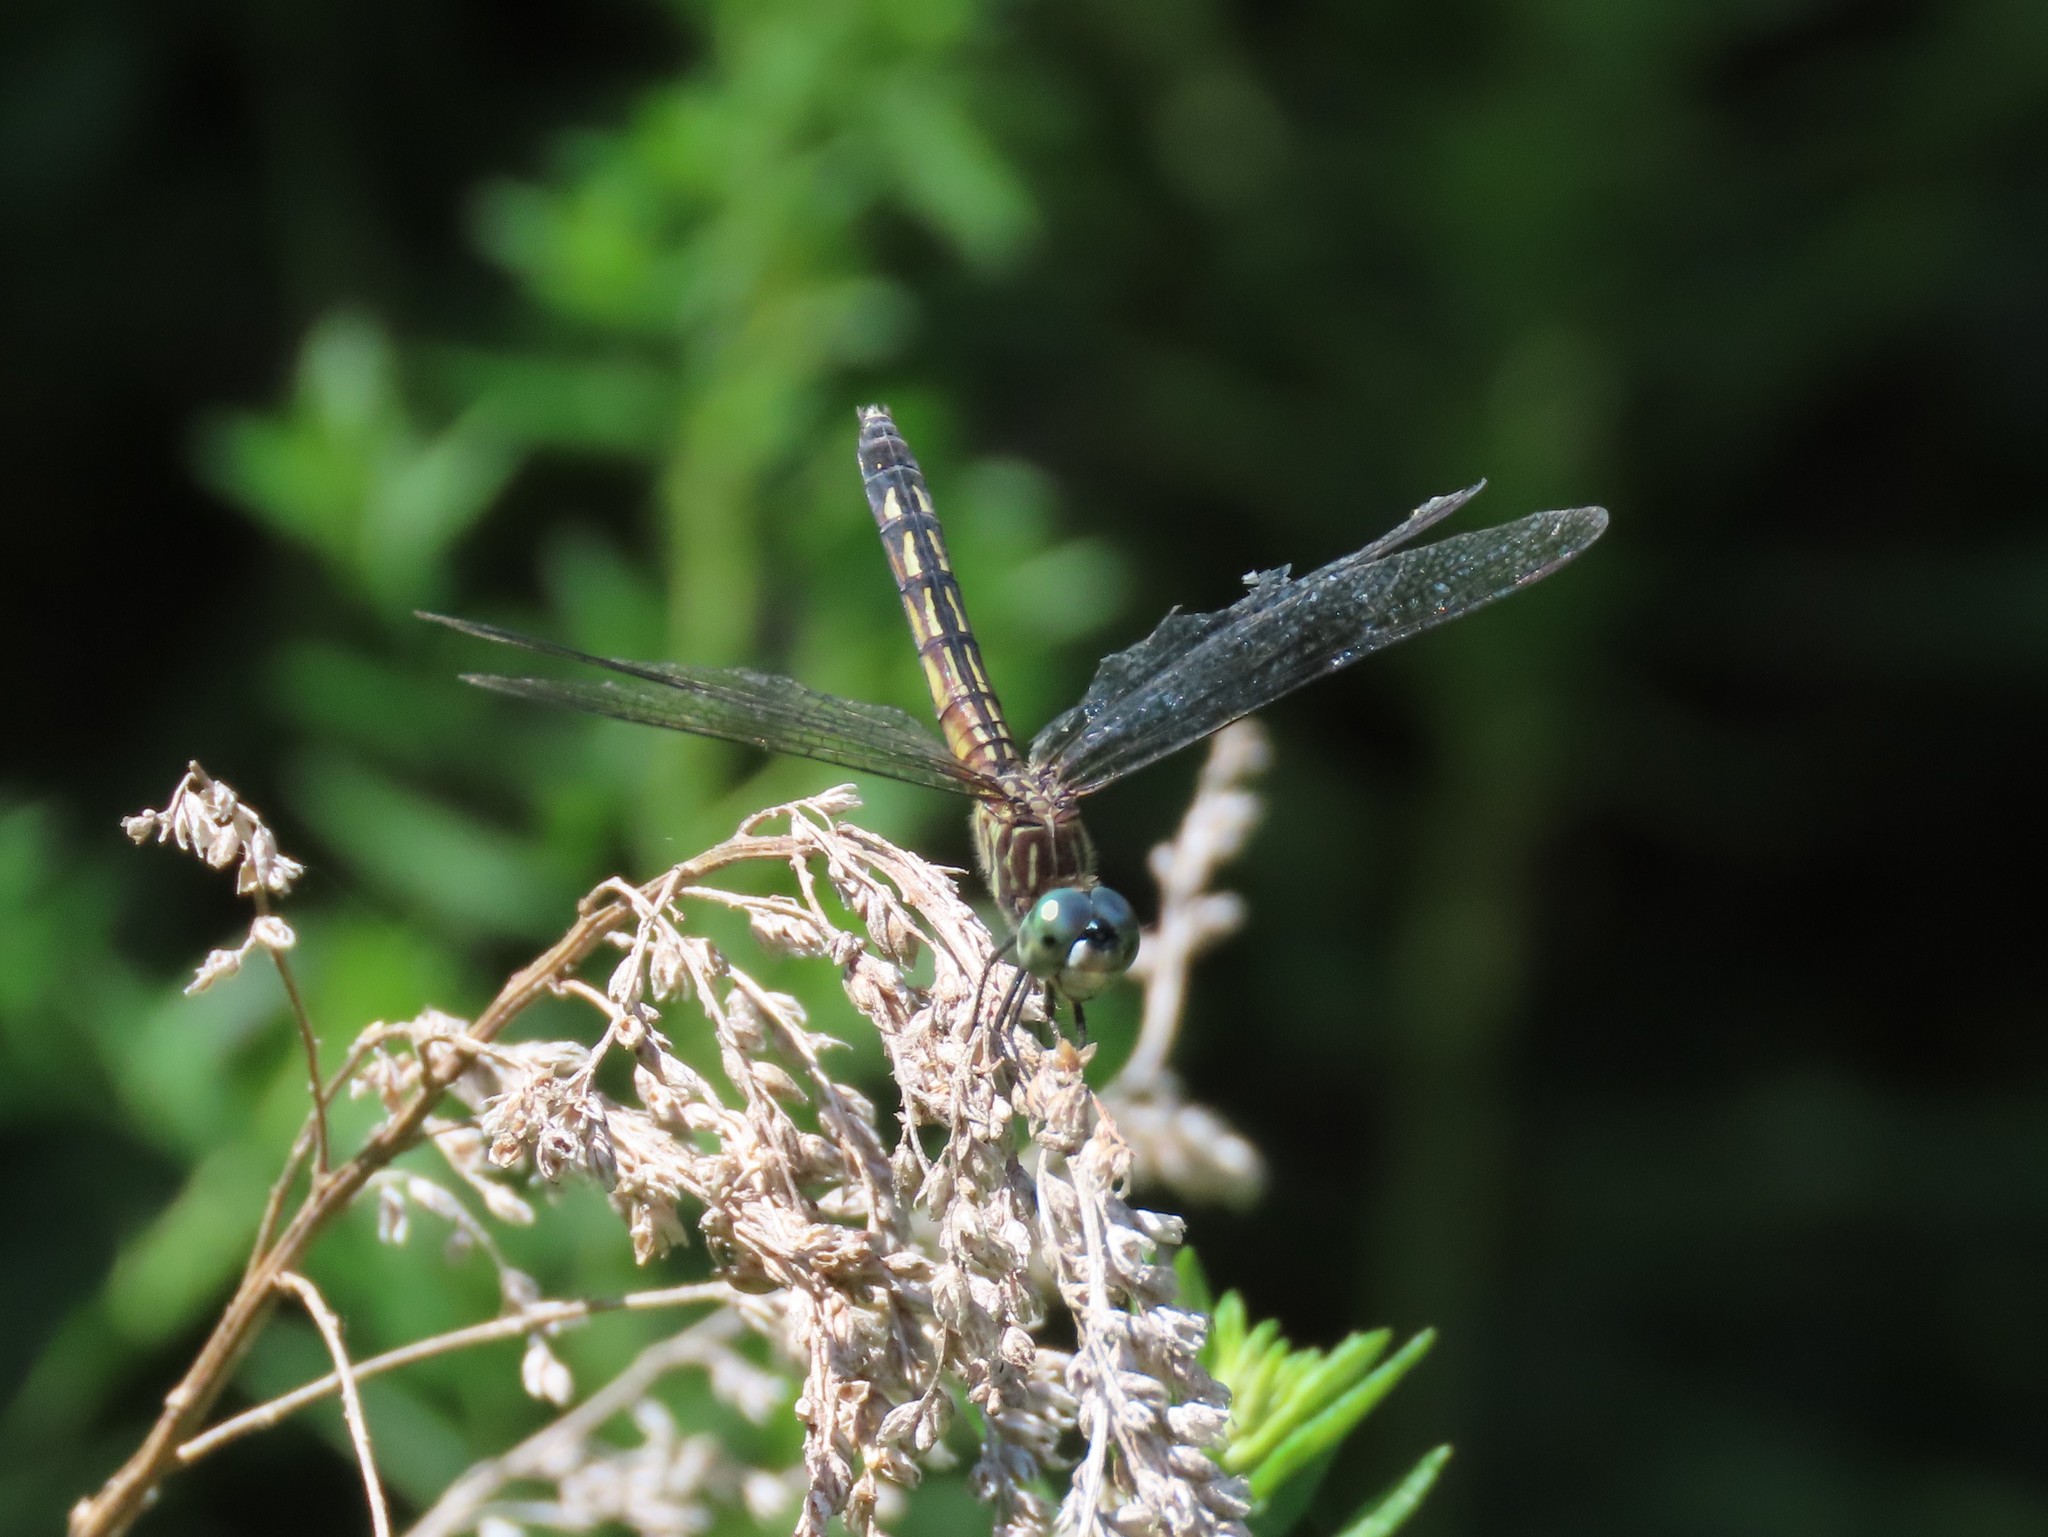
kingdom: Animalia
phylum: Arthropoda
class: Insecta
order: Odonata
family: Libellulidae
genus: Pachydiplax
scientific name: Pachydiplax longipennis
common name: Blue dasher
